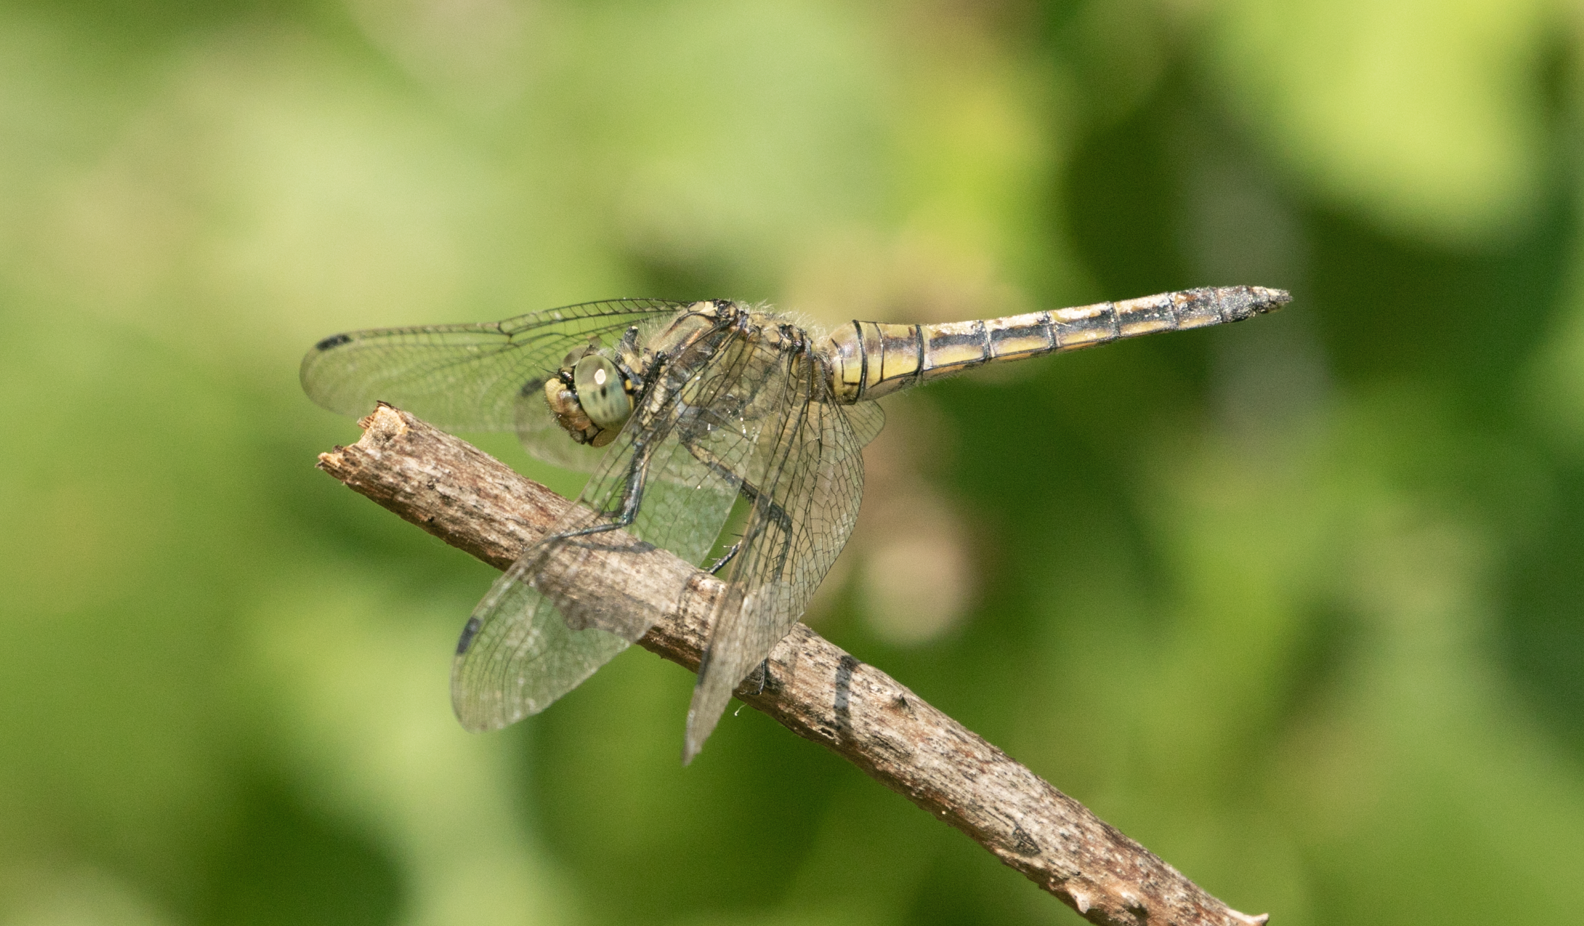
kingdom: Animalia
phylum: Arthropoda
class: Insecta
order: Odonata
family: Libellulidae
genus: Orthetrum
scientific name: Orthetrum cancellatum
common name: Black-tailed skimmer
